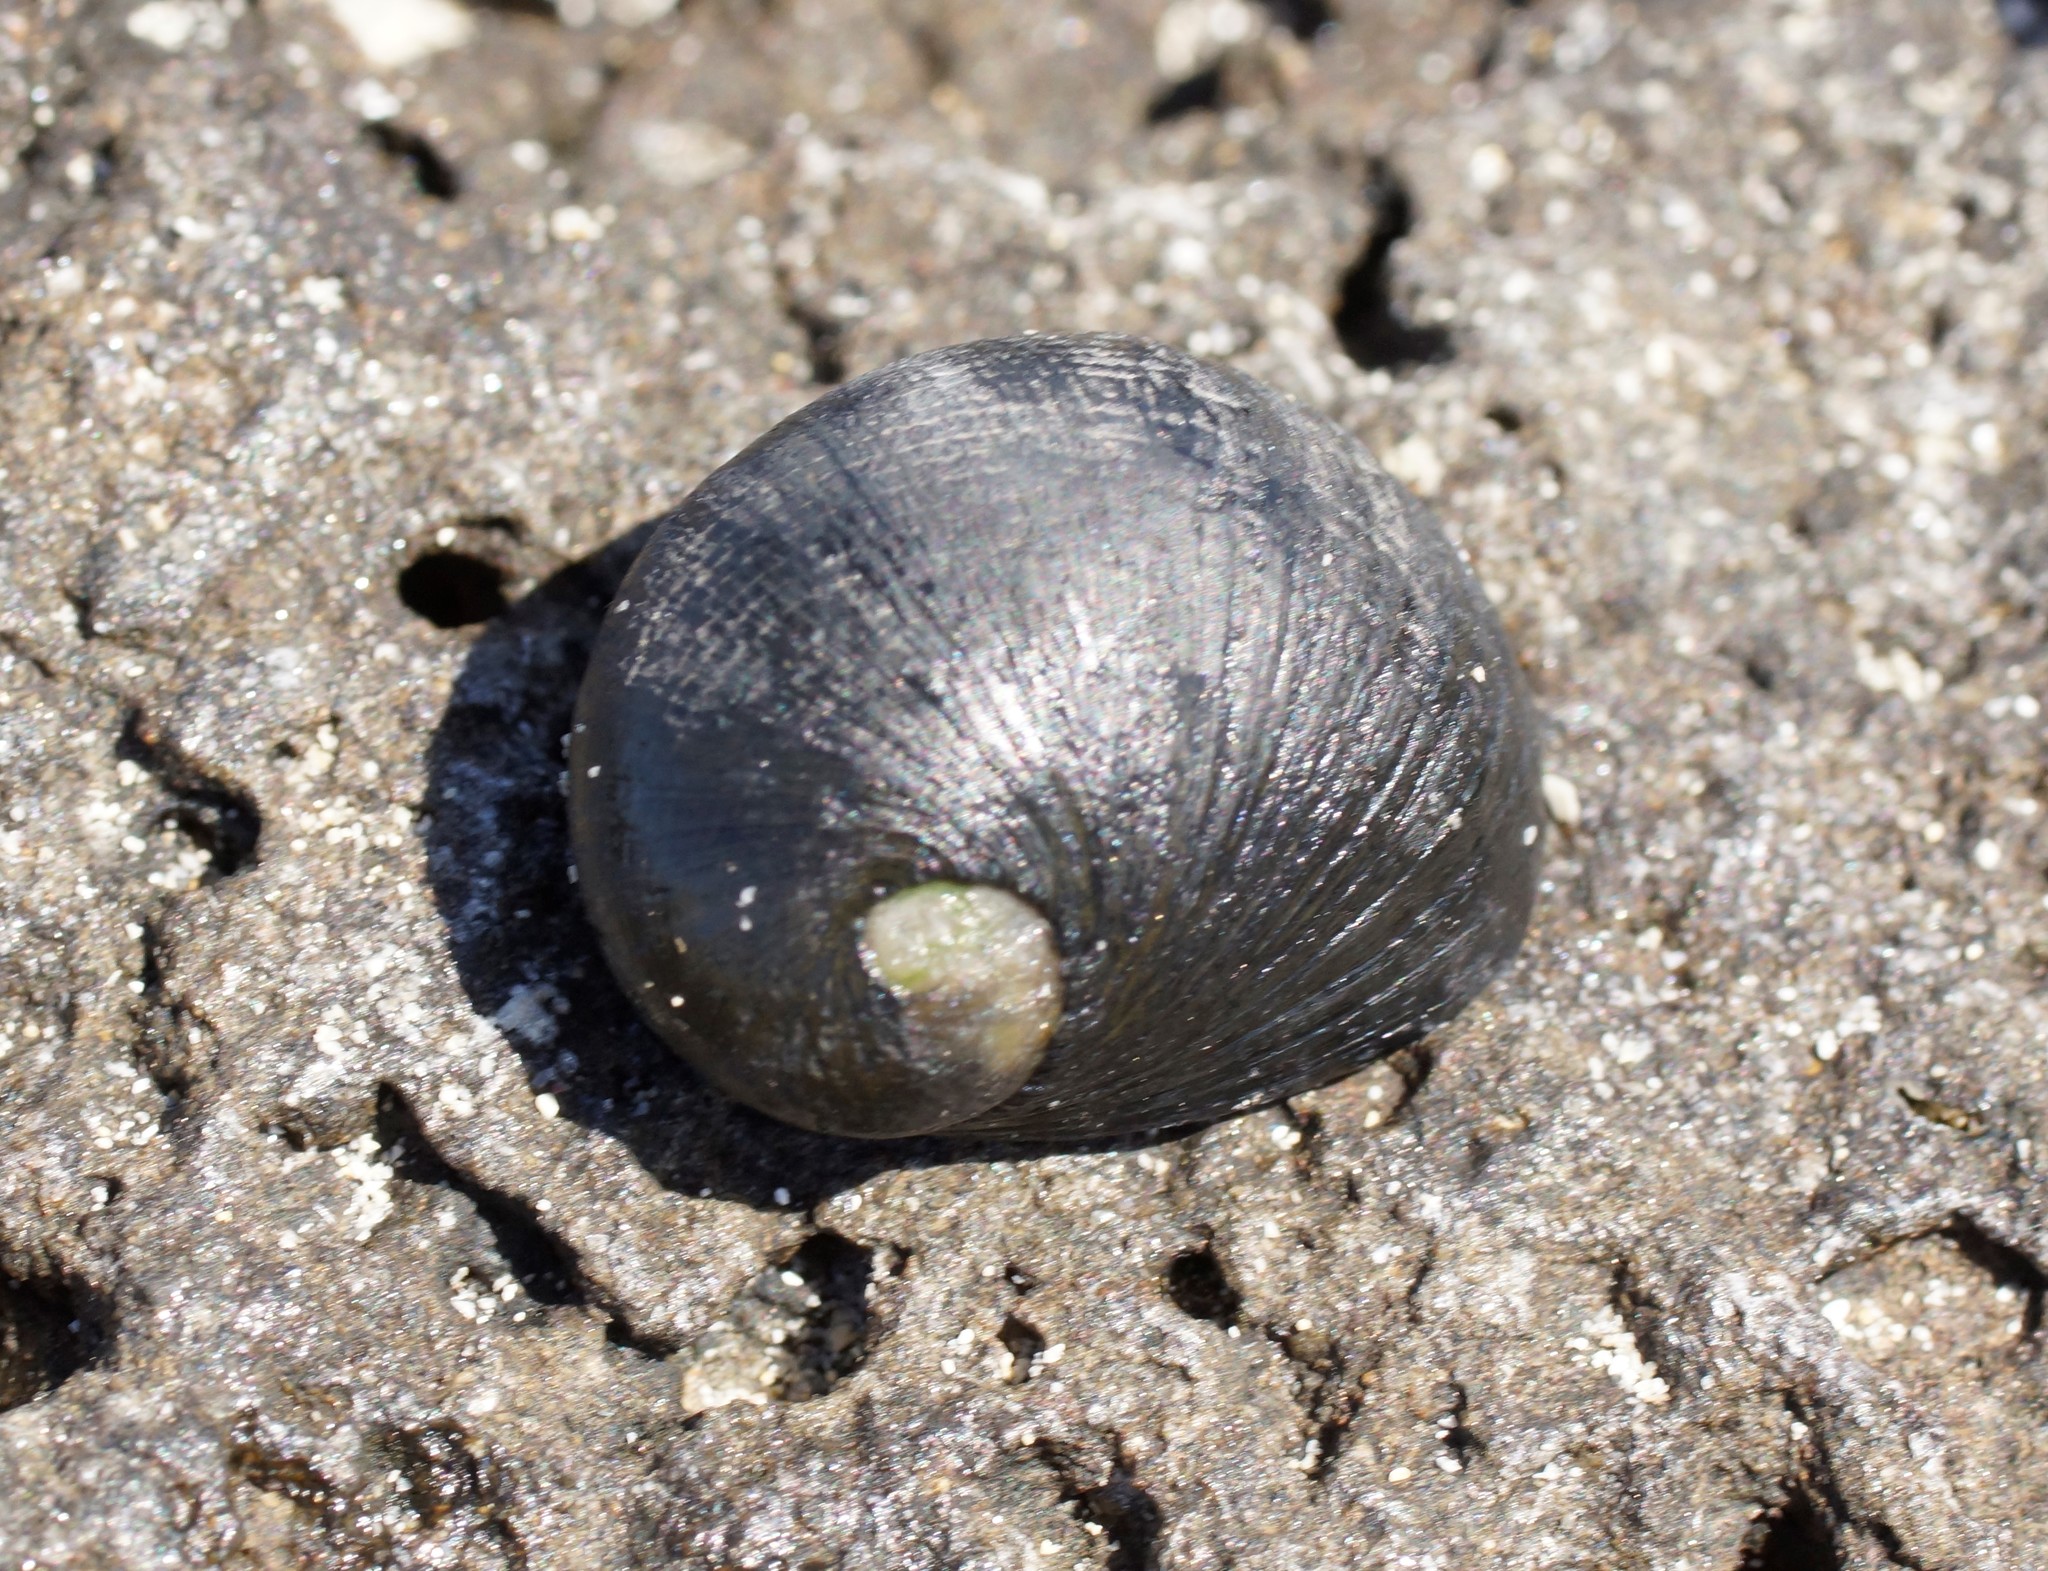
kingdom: Animalia
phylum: Mollusca
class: Gastropoda
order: Cycloneritida
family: Neritidae
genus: Nerita
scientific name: Nerita atramentosa
